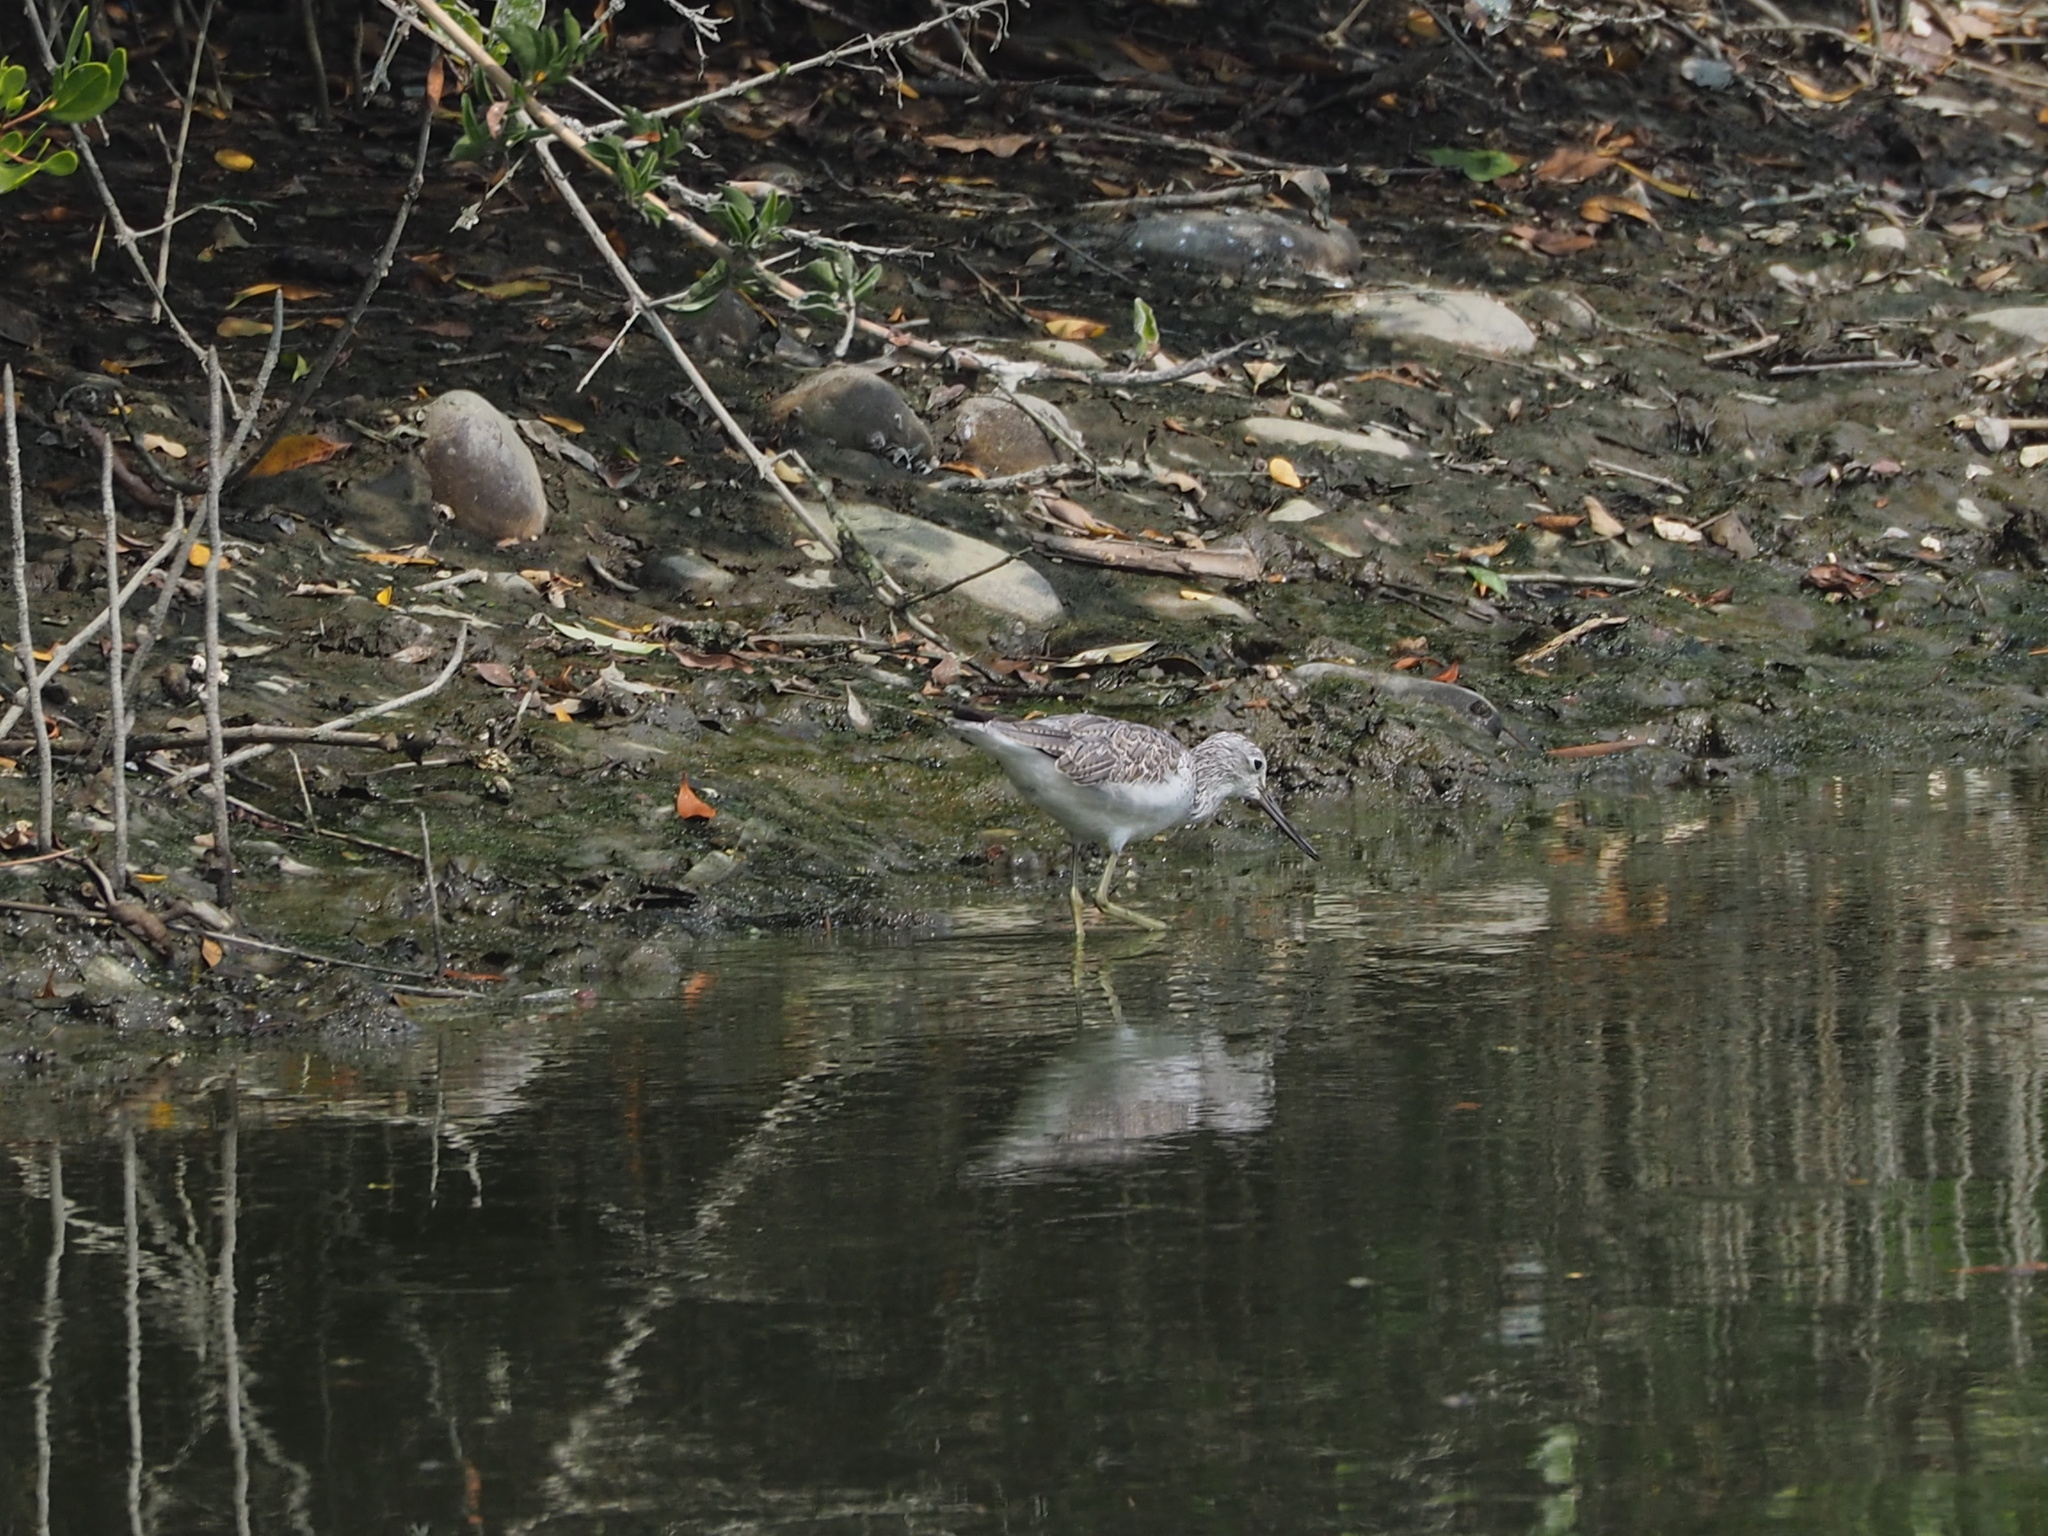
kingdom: Animalia
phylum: Chordata
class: Aves
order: Charadriiformes
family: Scolopacidae
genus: Tringa
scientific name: Tringa nebularia
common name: Common greenshank
